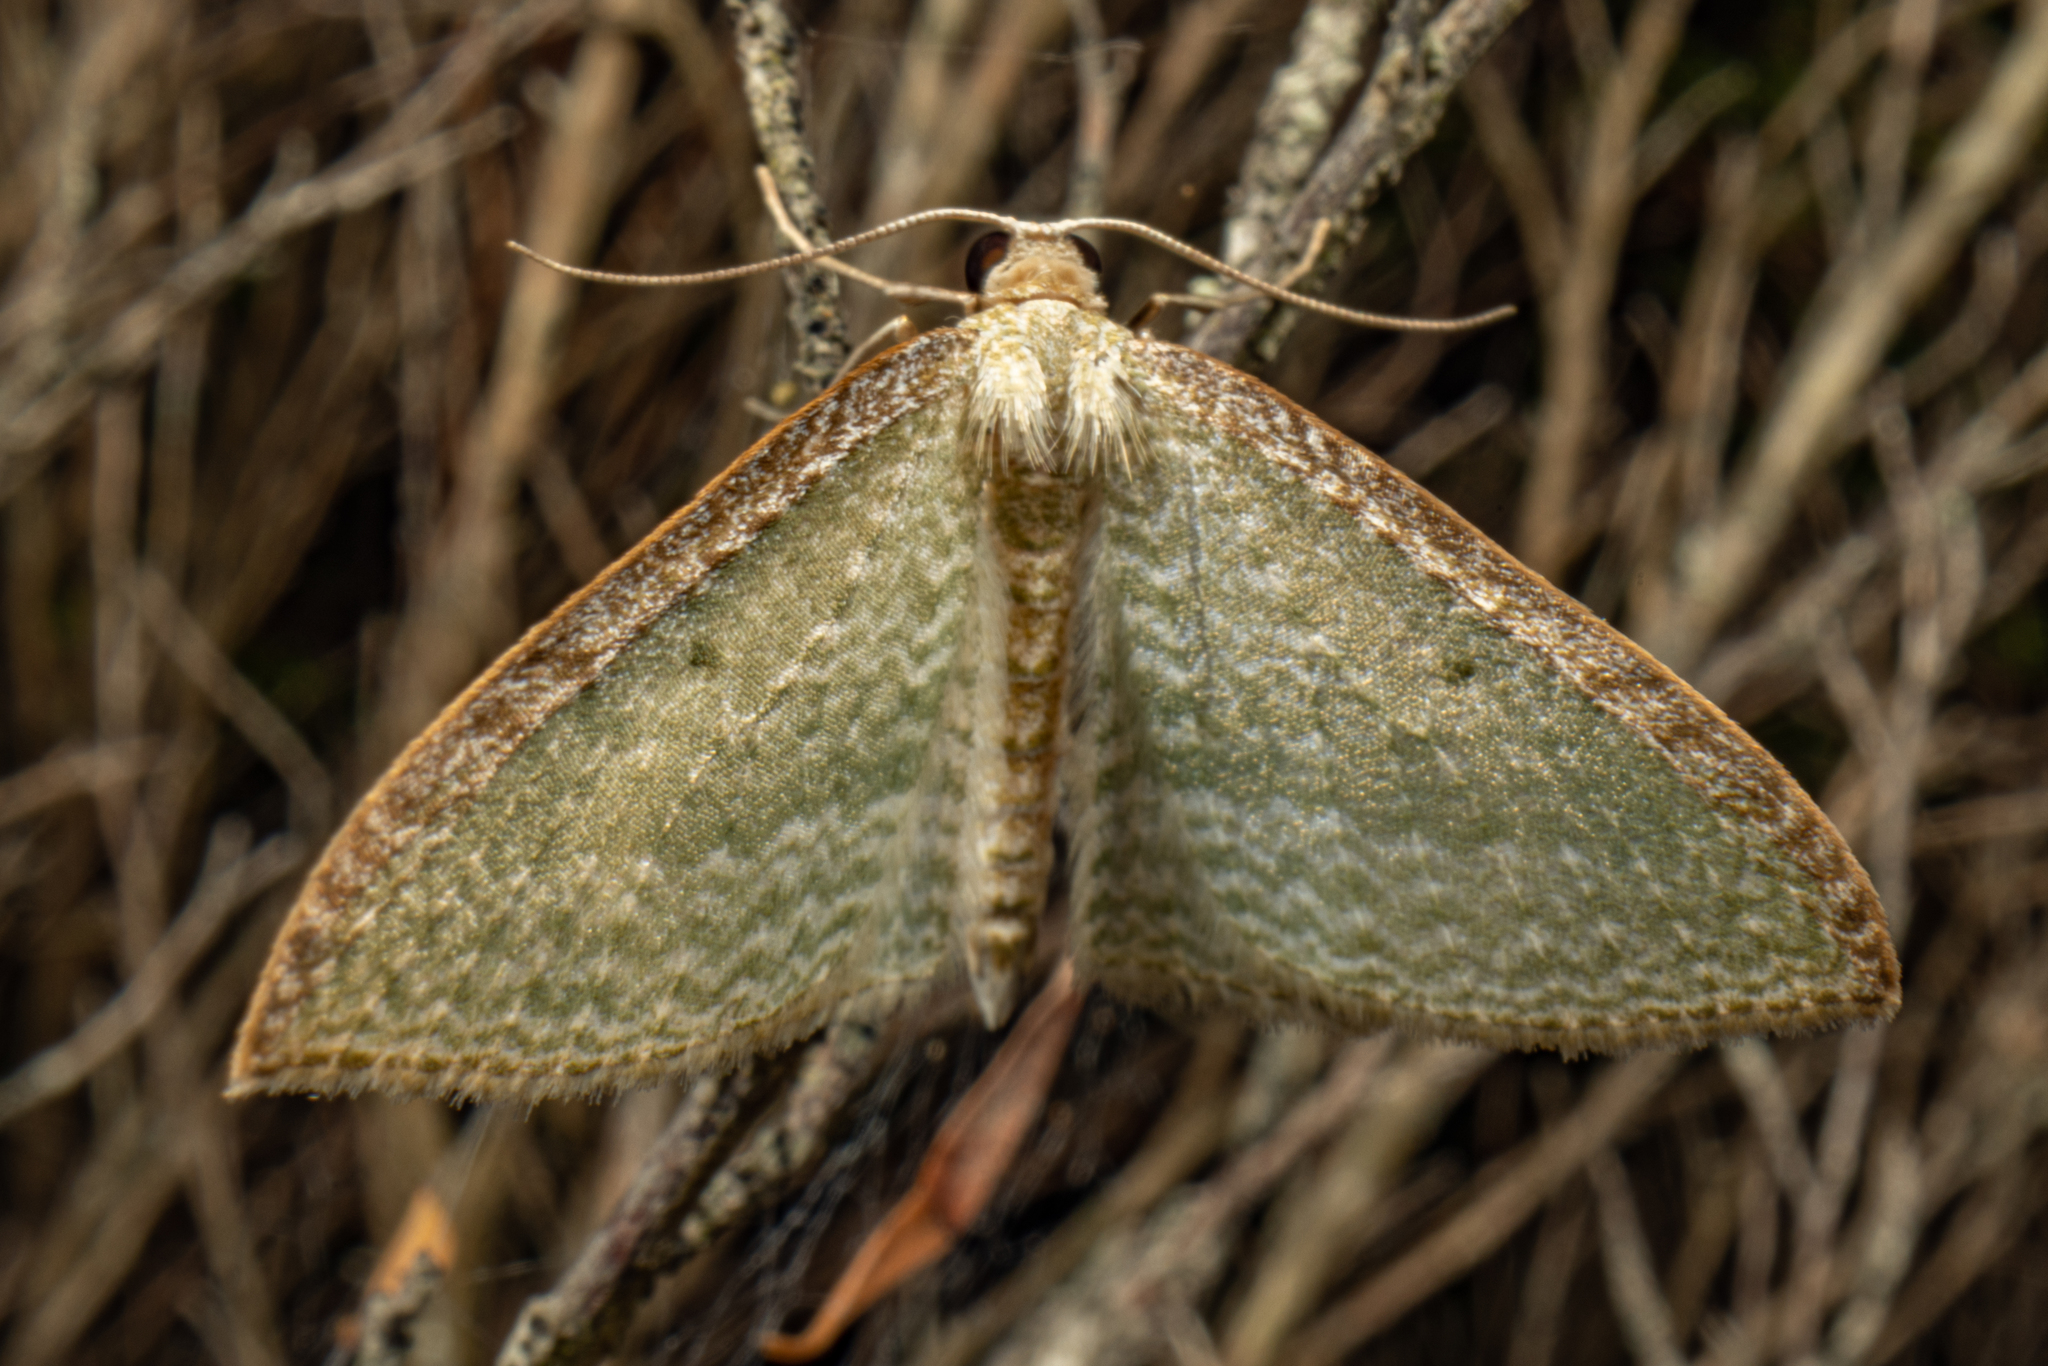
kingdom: Animalia
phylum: Arthropoda
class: Insecta
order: Lepidoptera
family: Geometridae
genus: Poecilasthena
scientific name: Poecilasthena pulchraria
